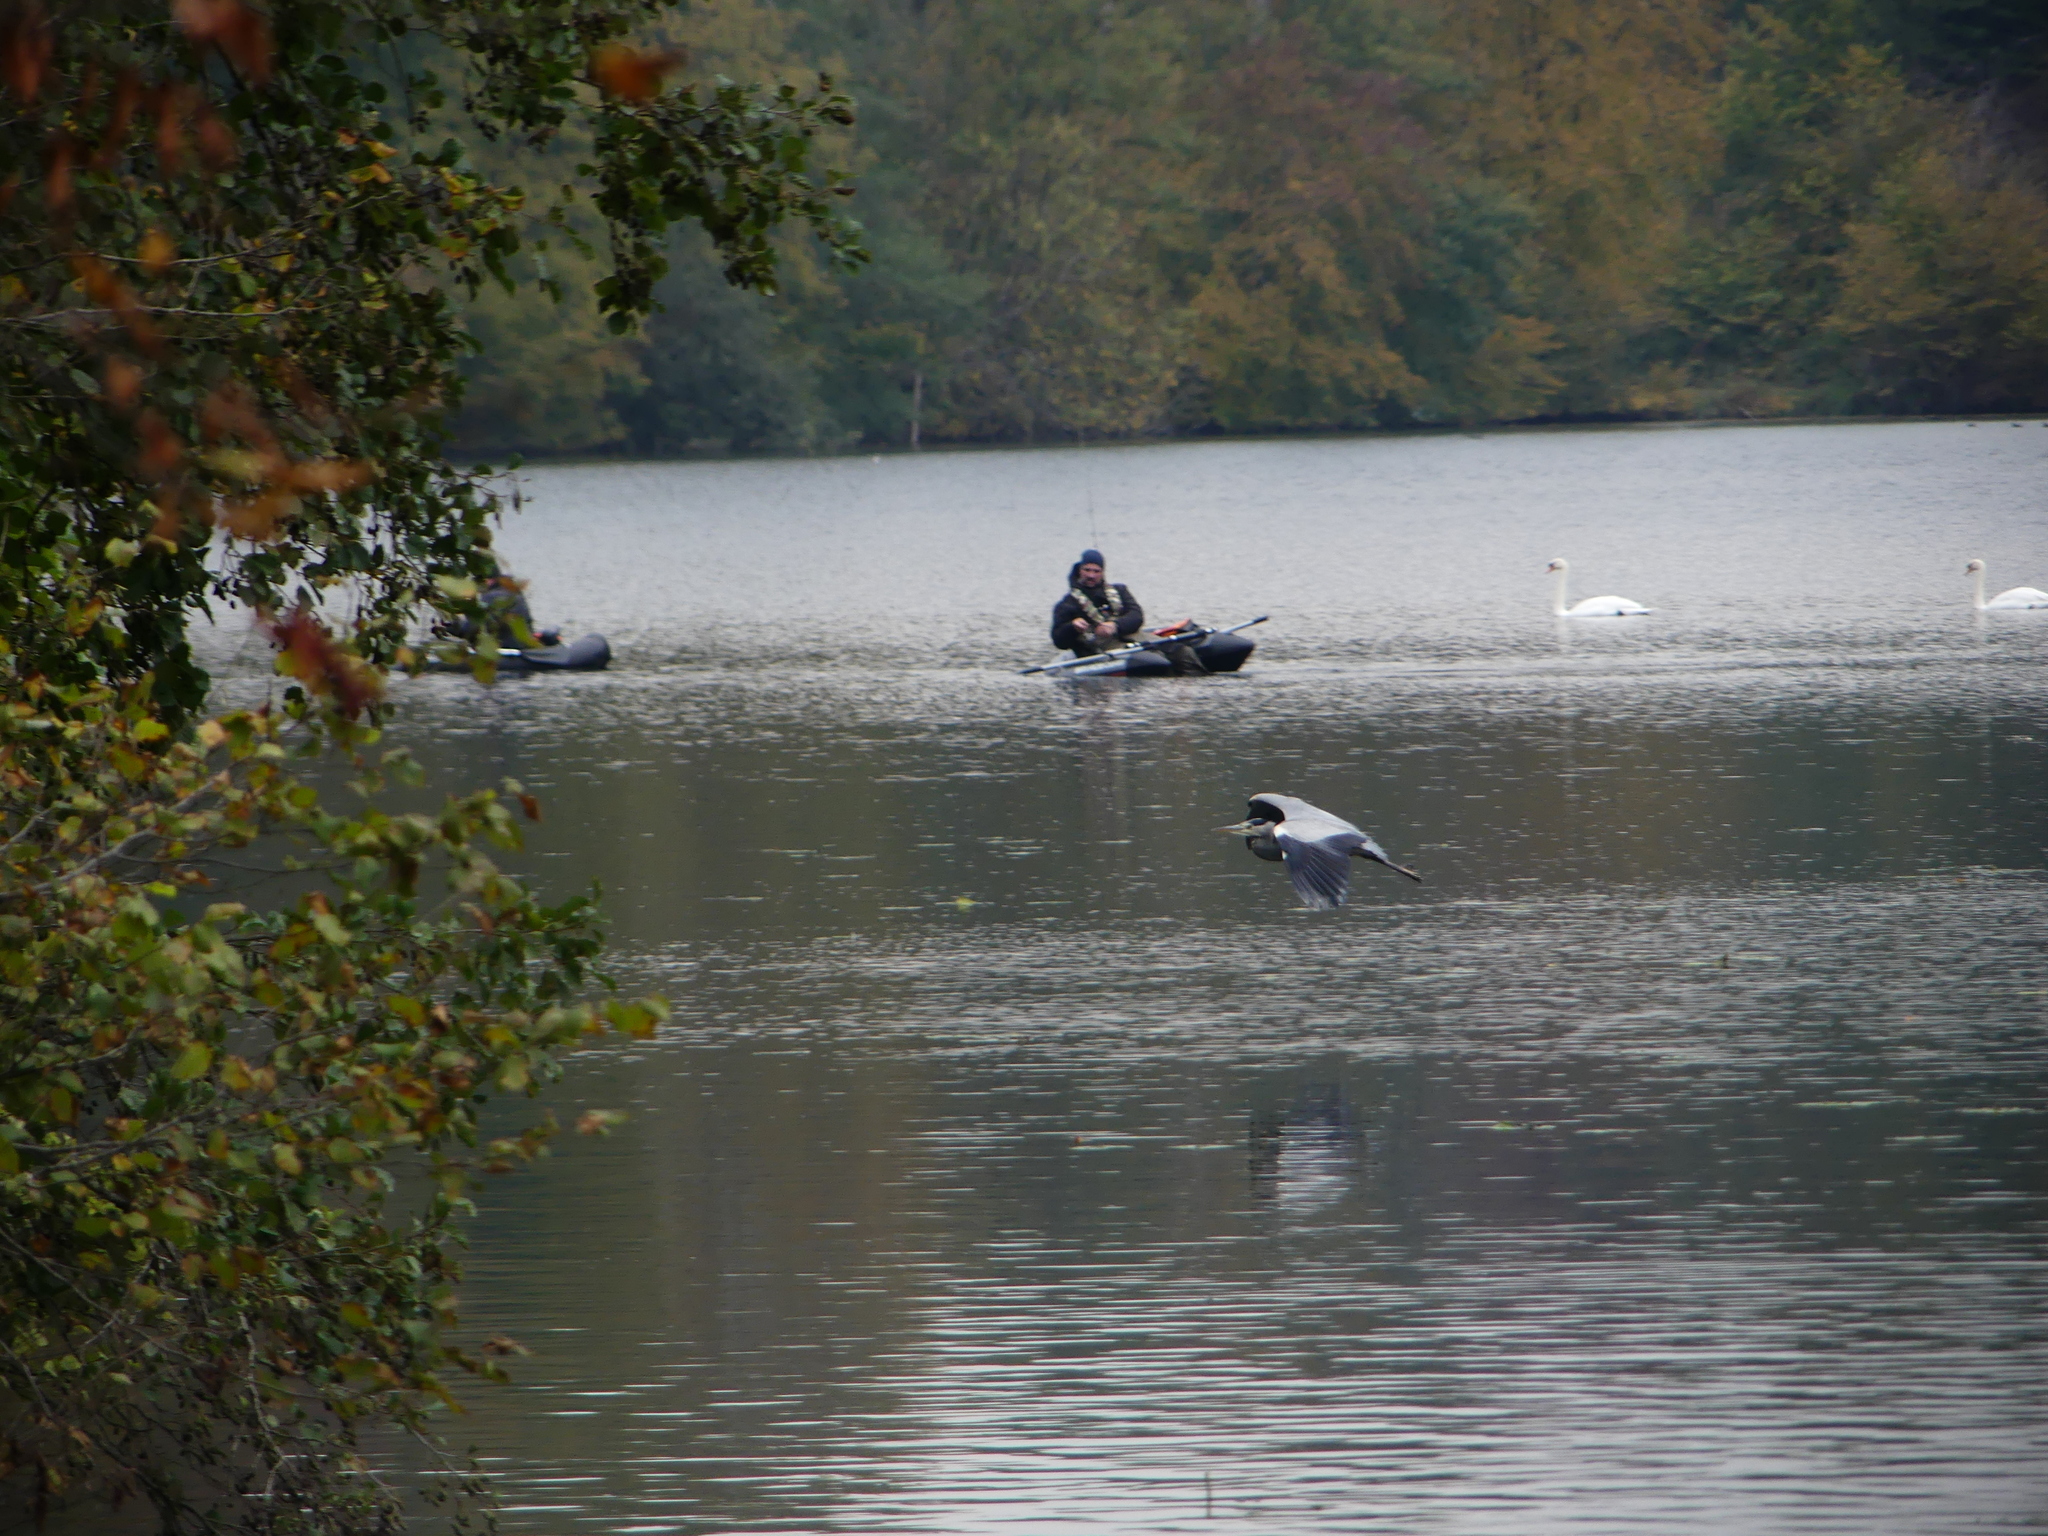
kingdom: Animalia
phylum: Chordata
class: Aves
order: Pelecaniformes
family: Ardeidae
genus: Ardea
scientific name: Ardea cinerea
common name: Grey heron
